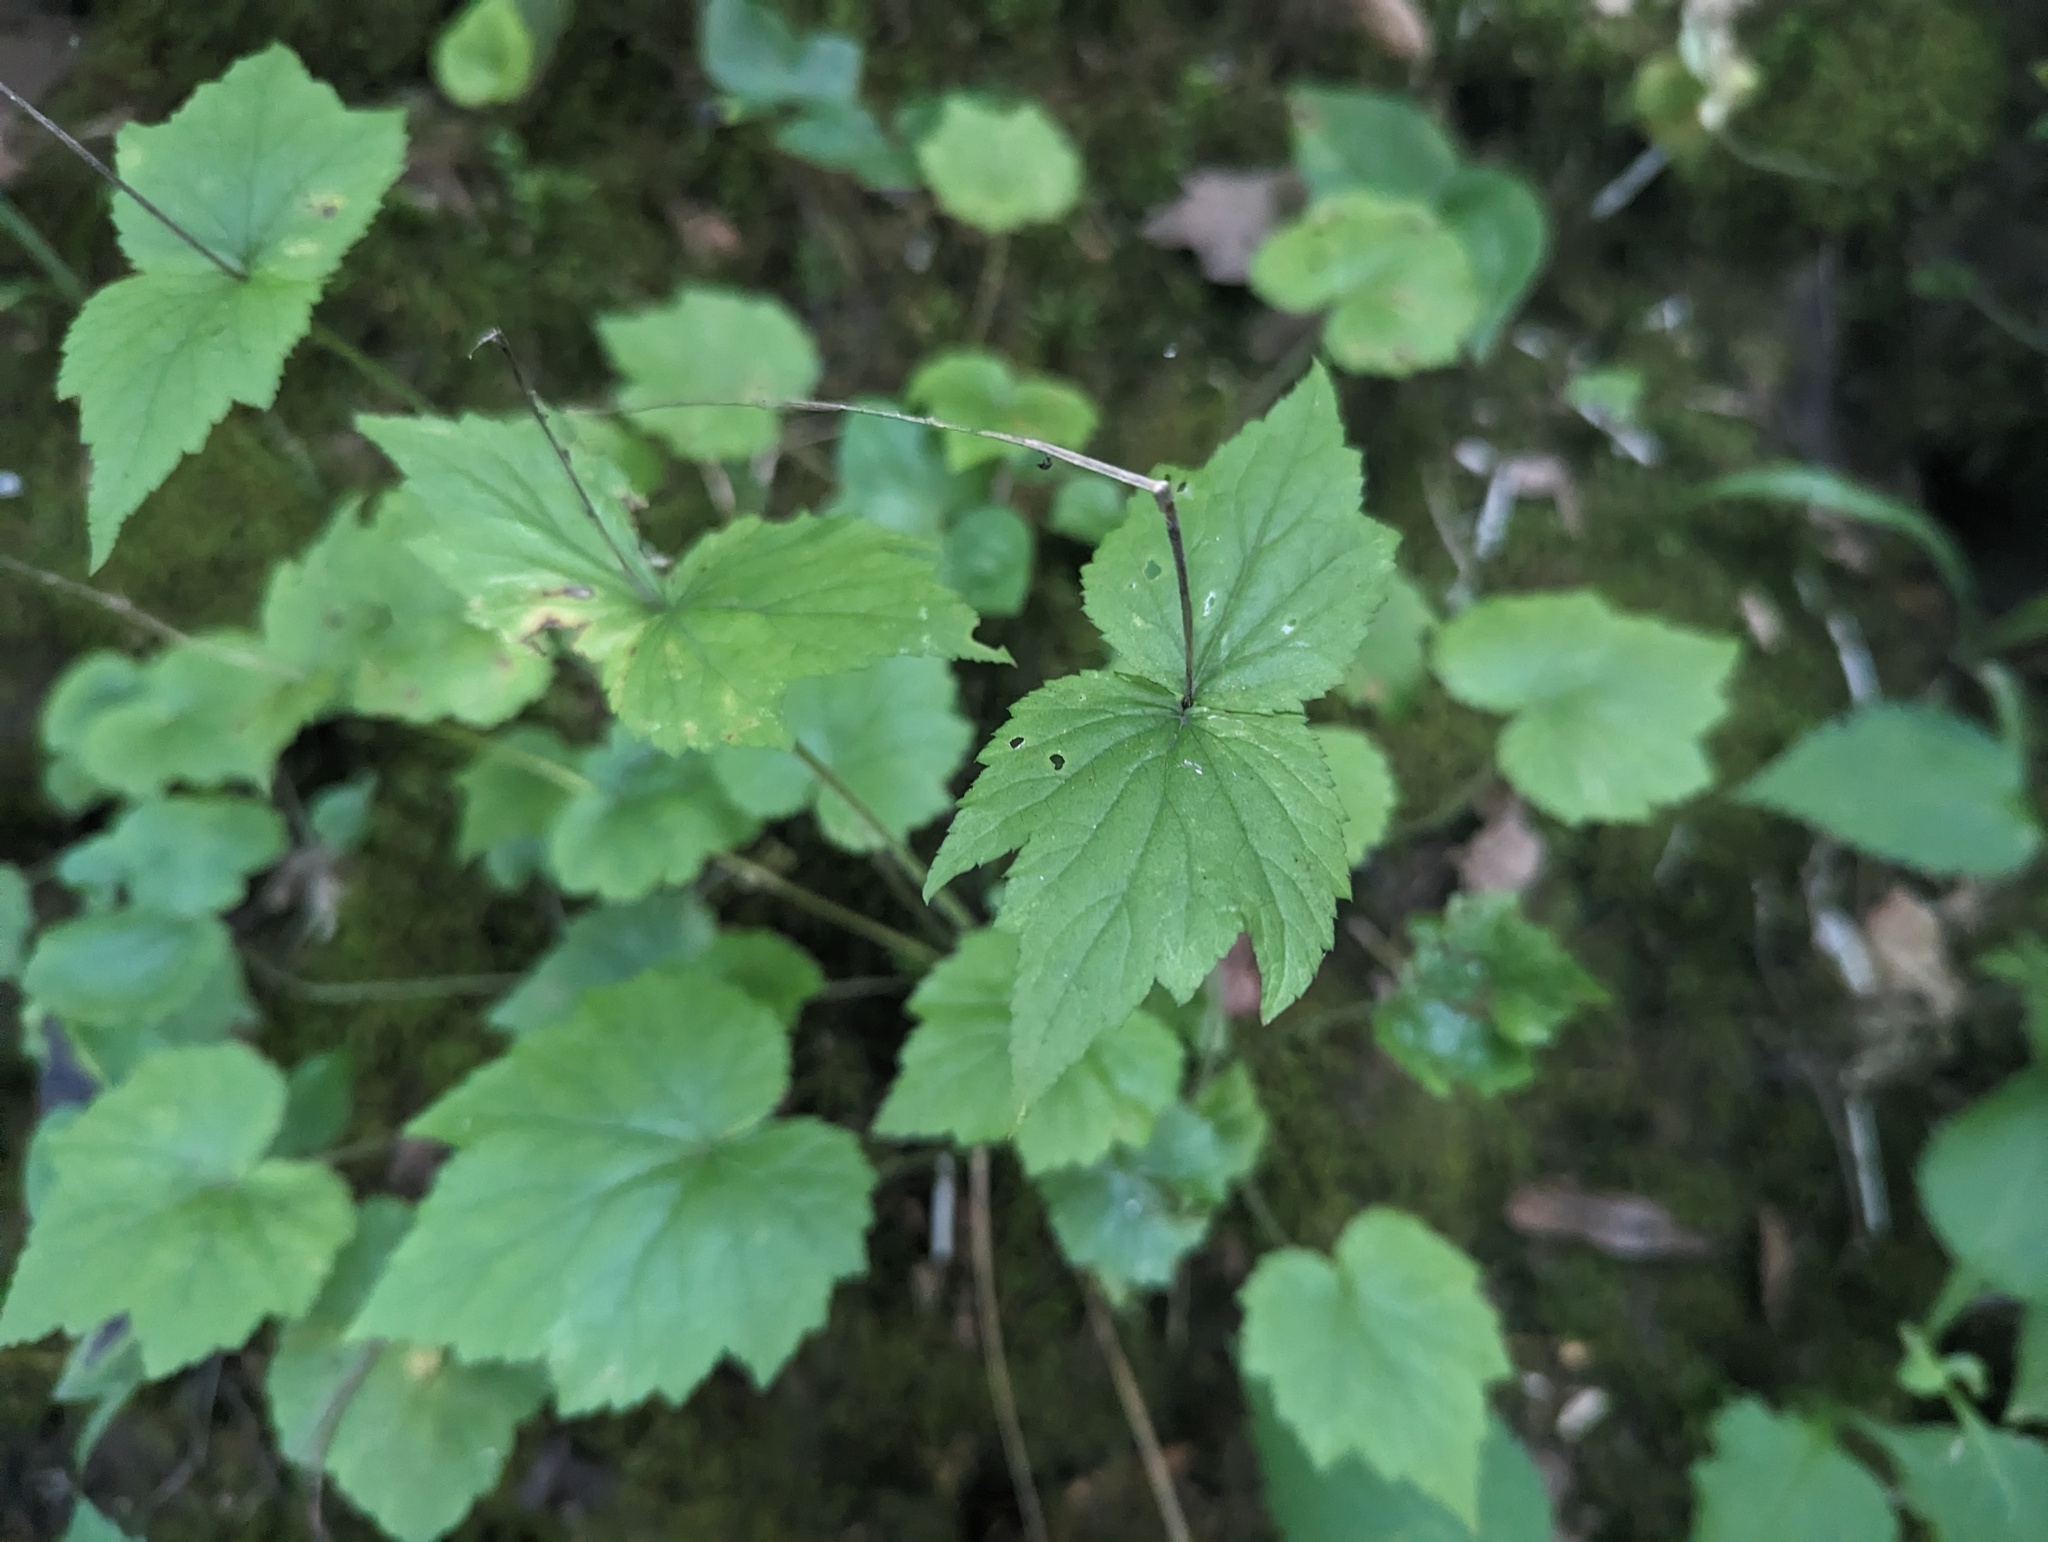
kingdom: Plantae
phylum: Tracheophyta
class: Magnoliopsida
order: Saxifragales
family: Saxifragaceae
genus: Mitella
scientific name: Mitella diphylla
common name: Coolwort
